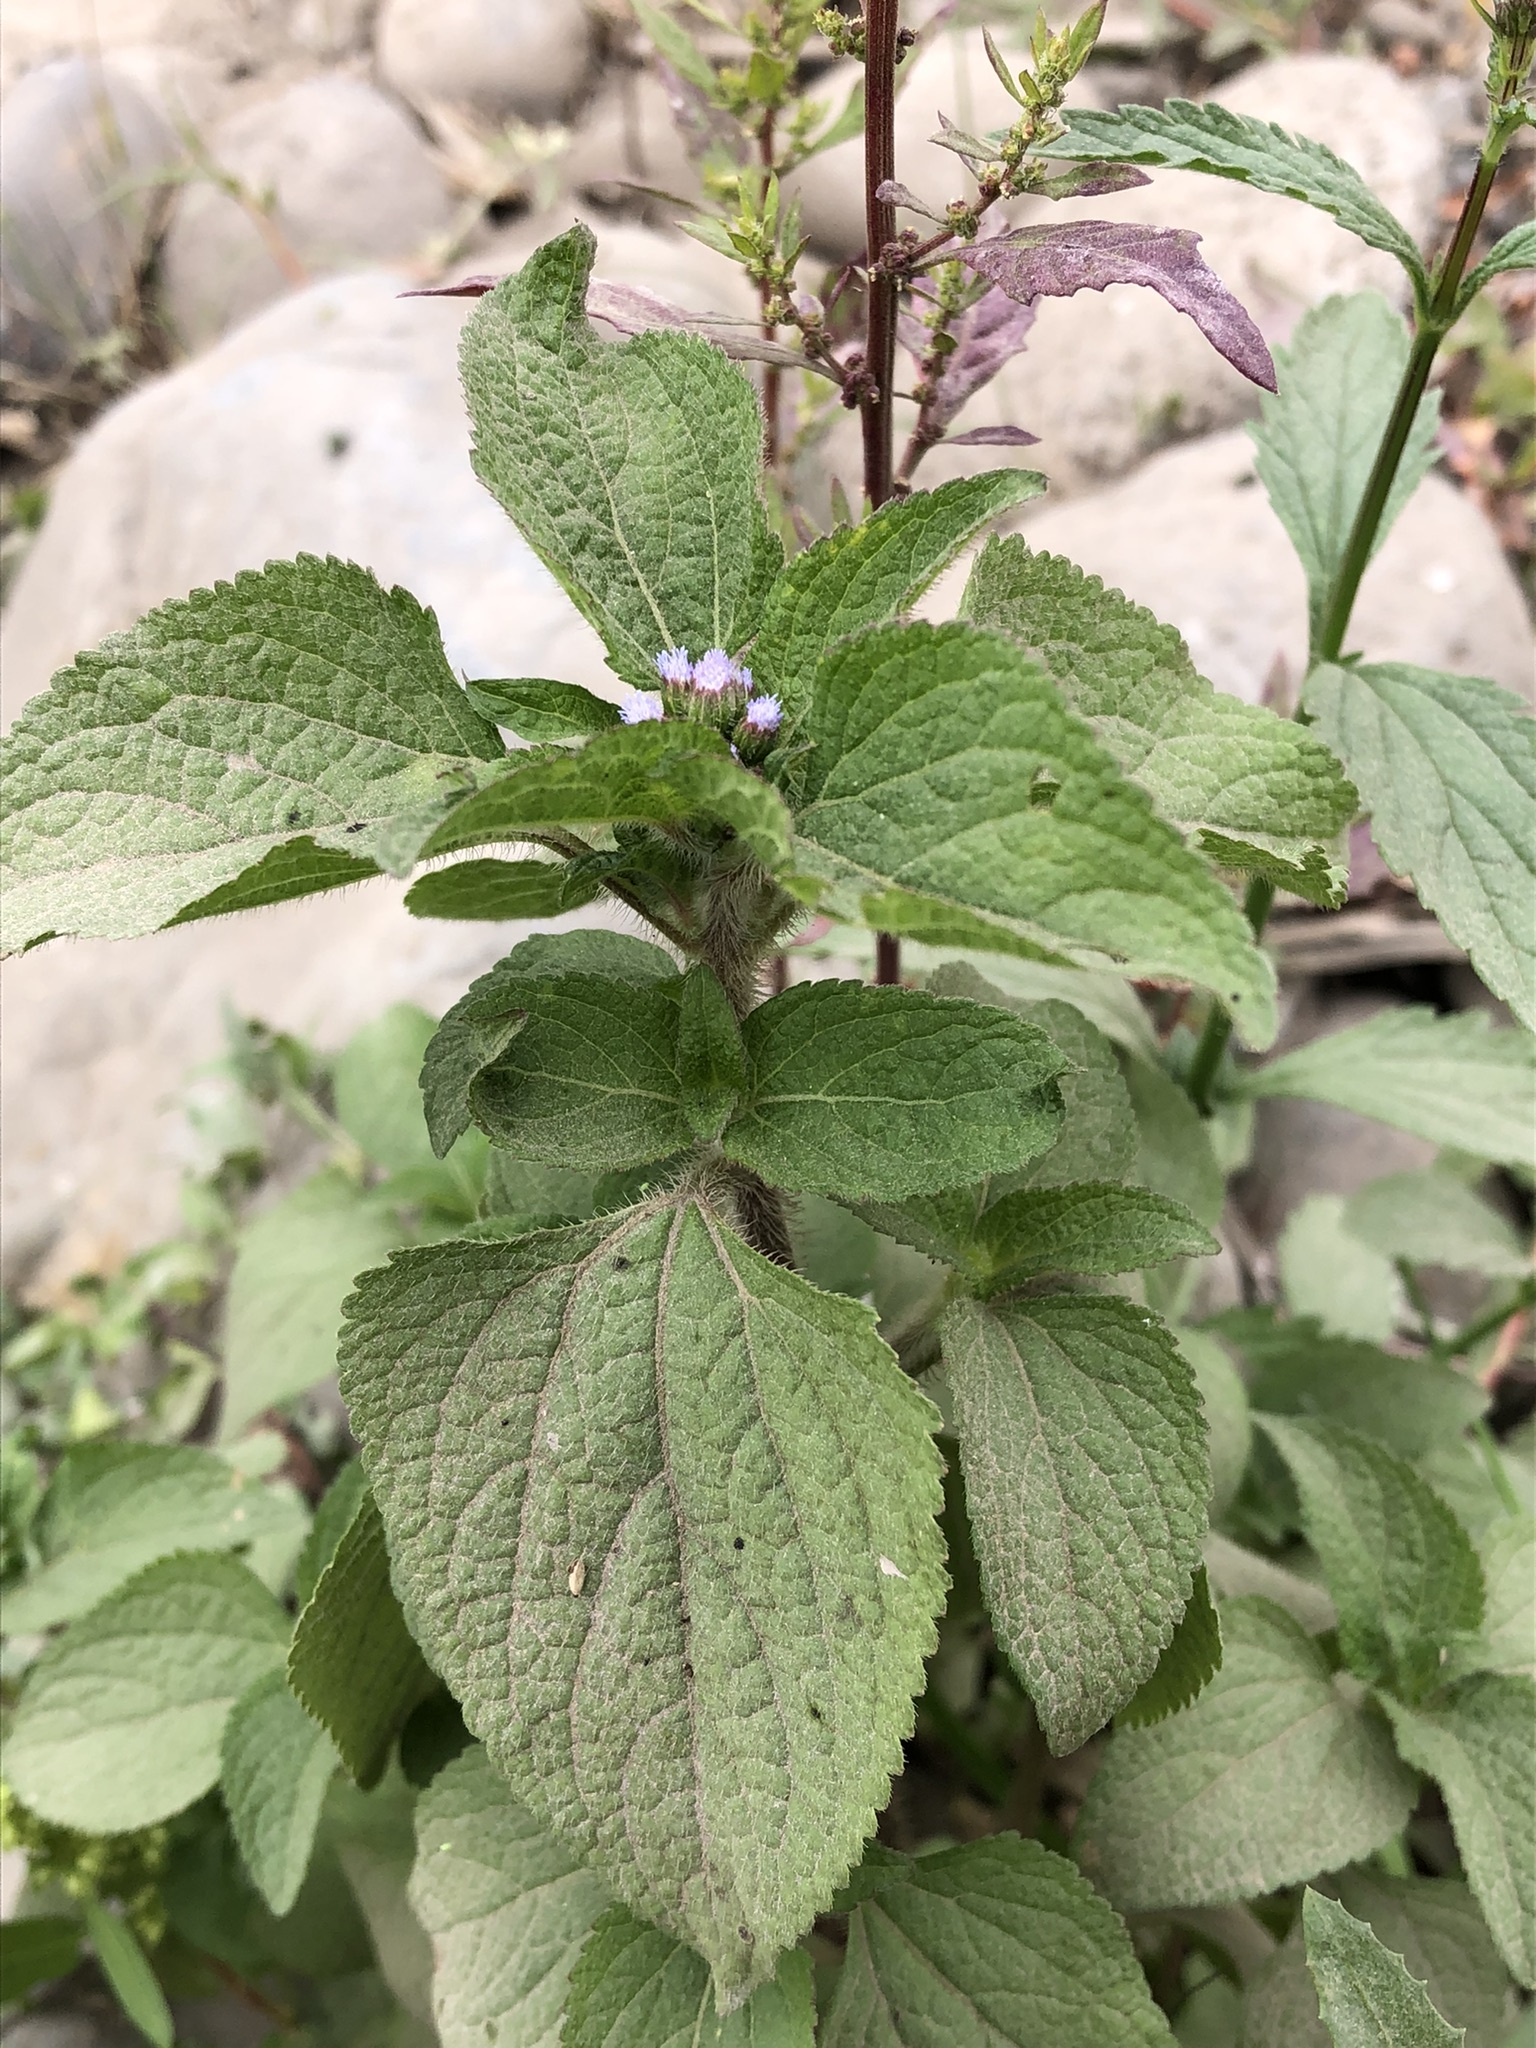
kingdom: Plantae
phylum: Tracheophyta
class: Magnoliopsida
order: Asterales
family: Asteraceae
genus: Ageratum
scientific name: Ageratum conyzoides
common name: Tropical whiteweed
